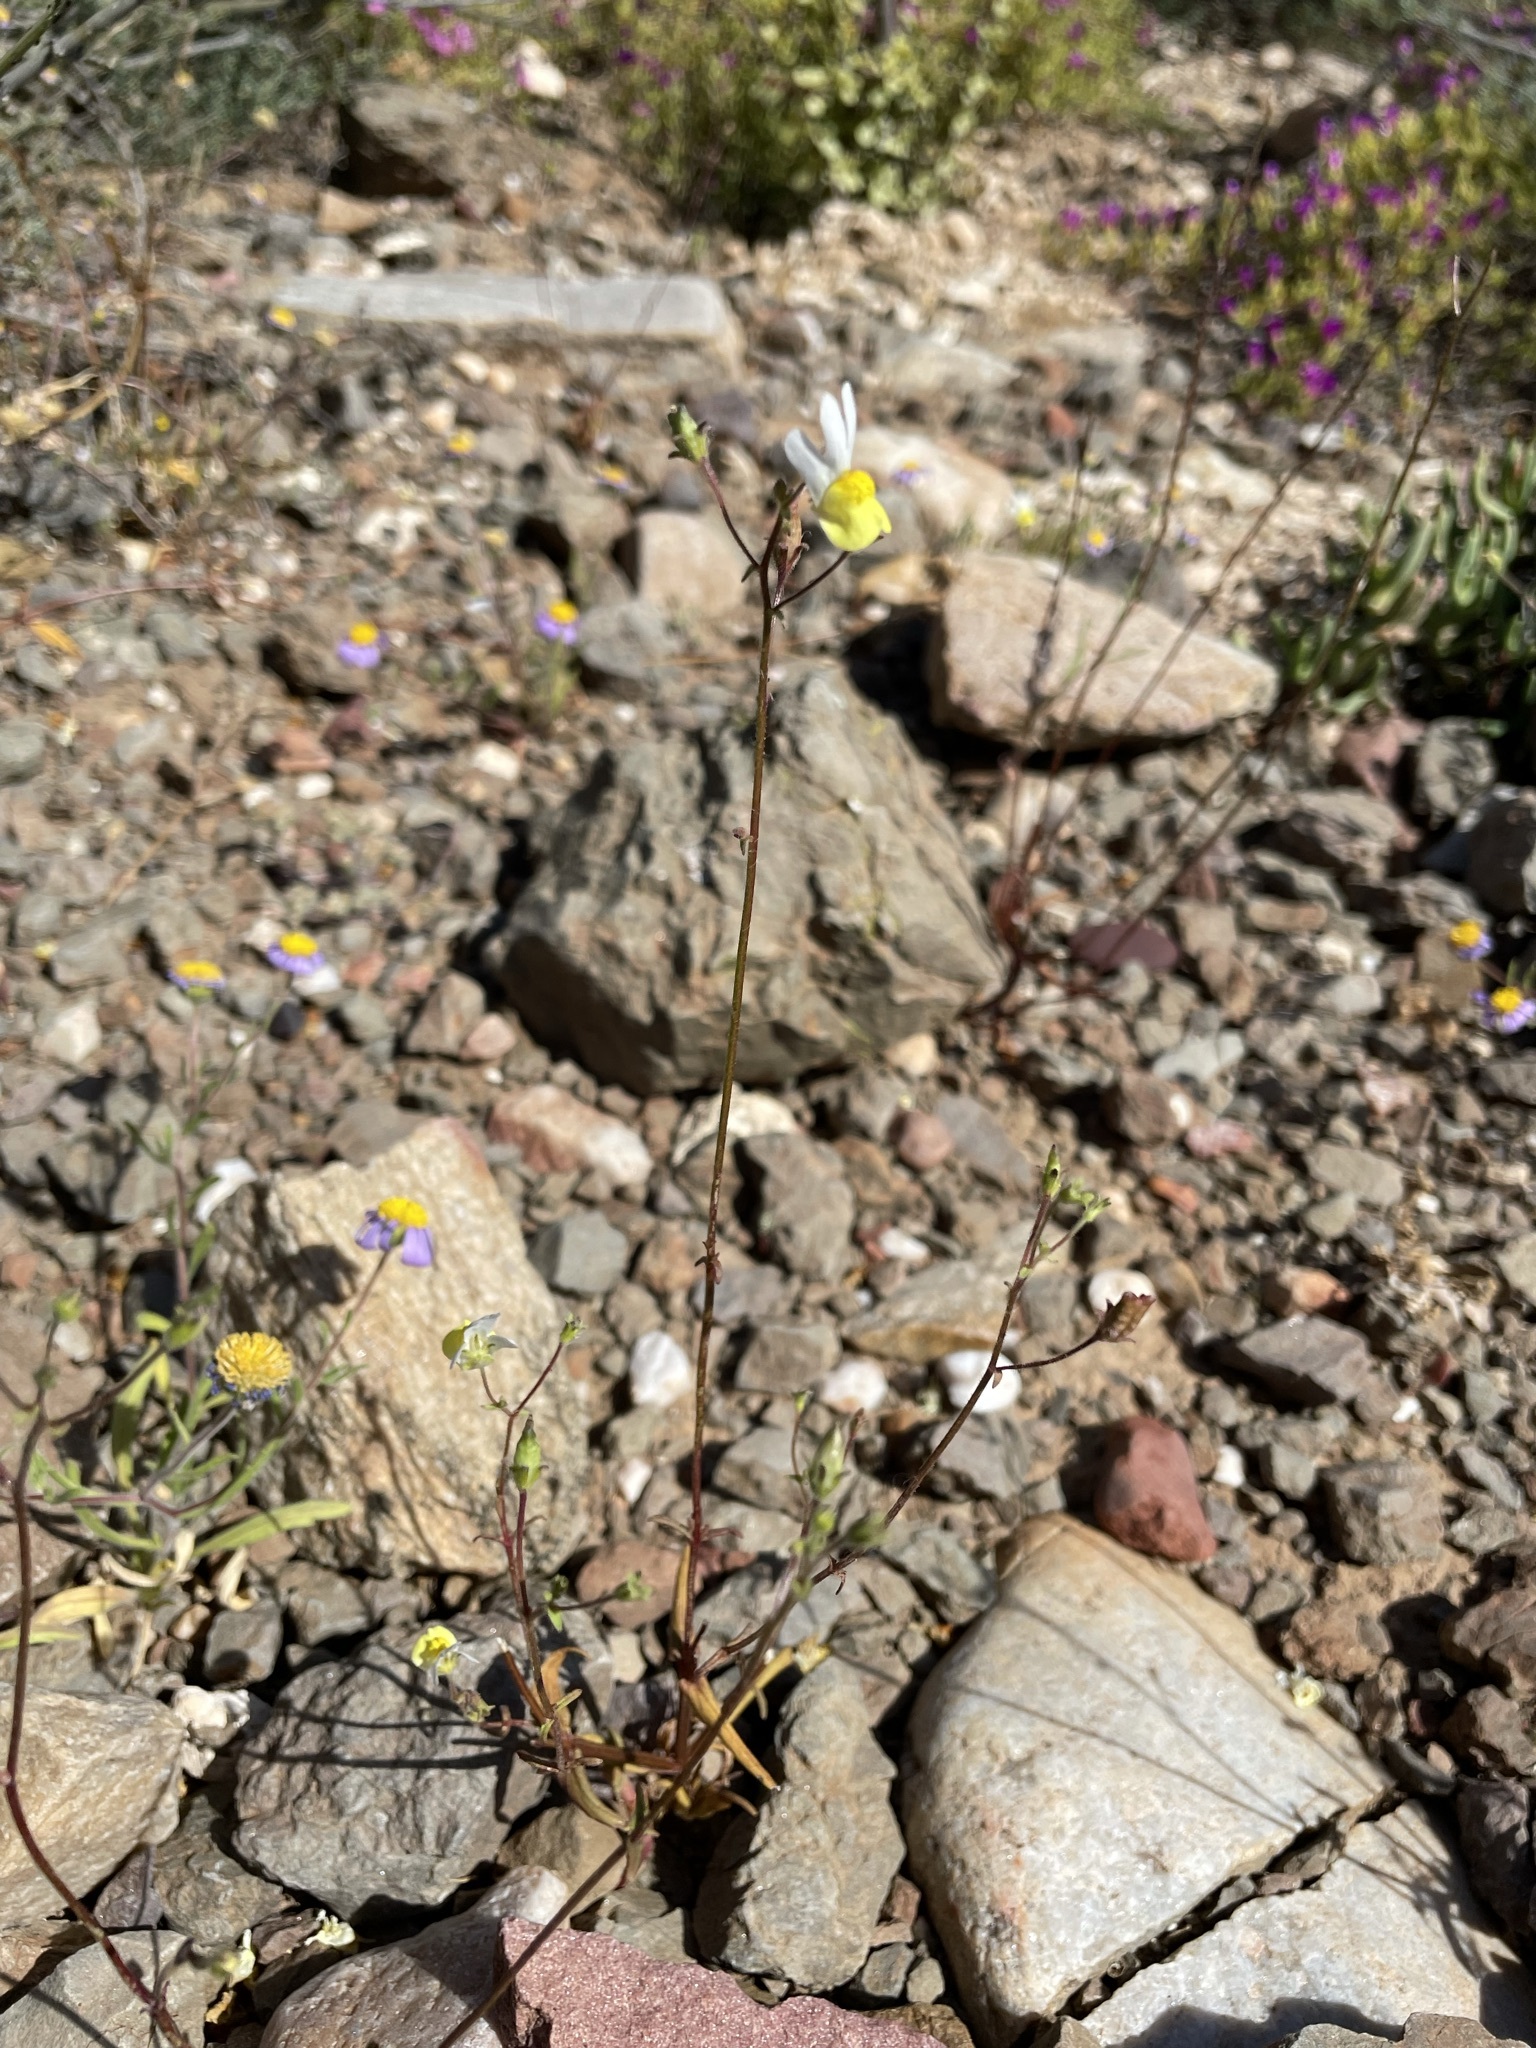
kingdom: Plantae
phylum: Tracheophyta
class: Magnoliopsida
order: Lamiales
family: Scrophulariaceae
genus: Nemesia
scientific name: Nemesia anisocarpa
